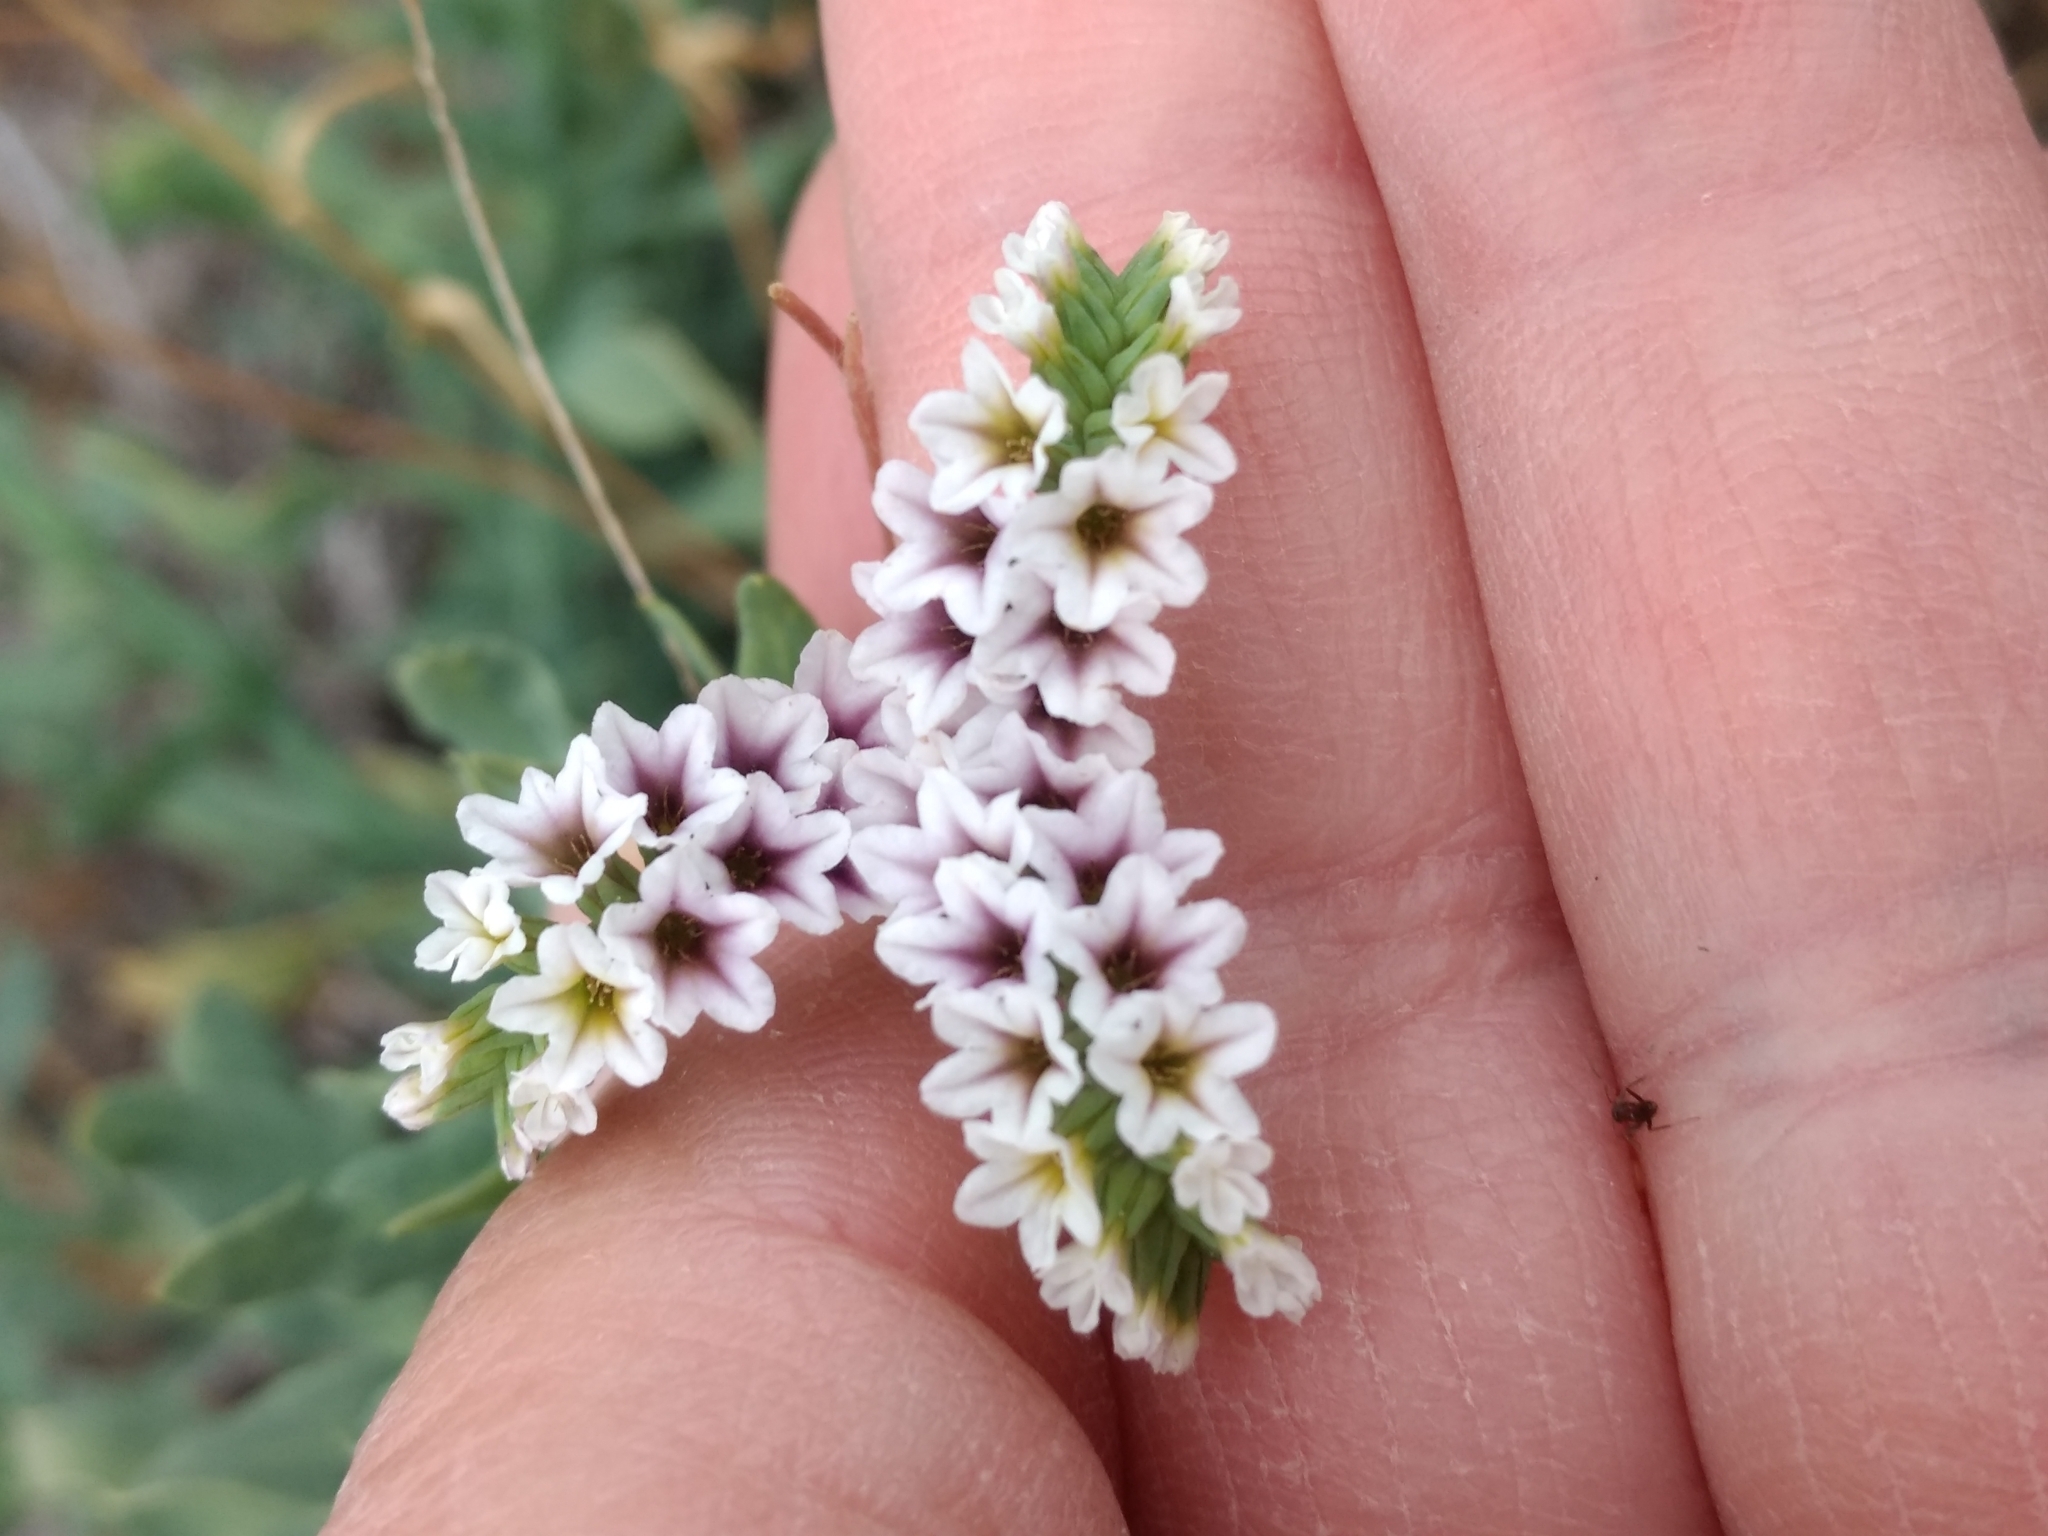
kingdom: Plantae
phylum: Tracheophyta
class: Magnoliopsida
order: Boraginales
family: Heliotropiaceae
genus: Heliotropium
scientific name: Heliotropium curassavicum
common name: Seaside heliotrope
